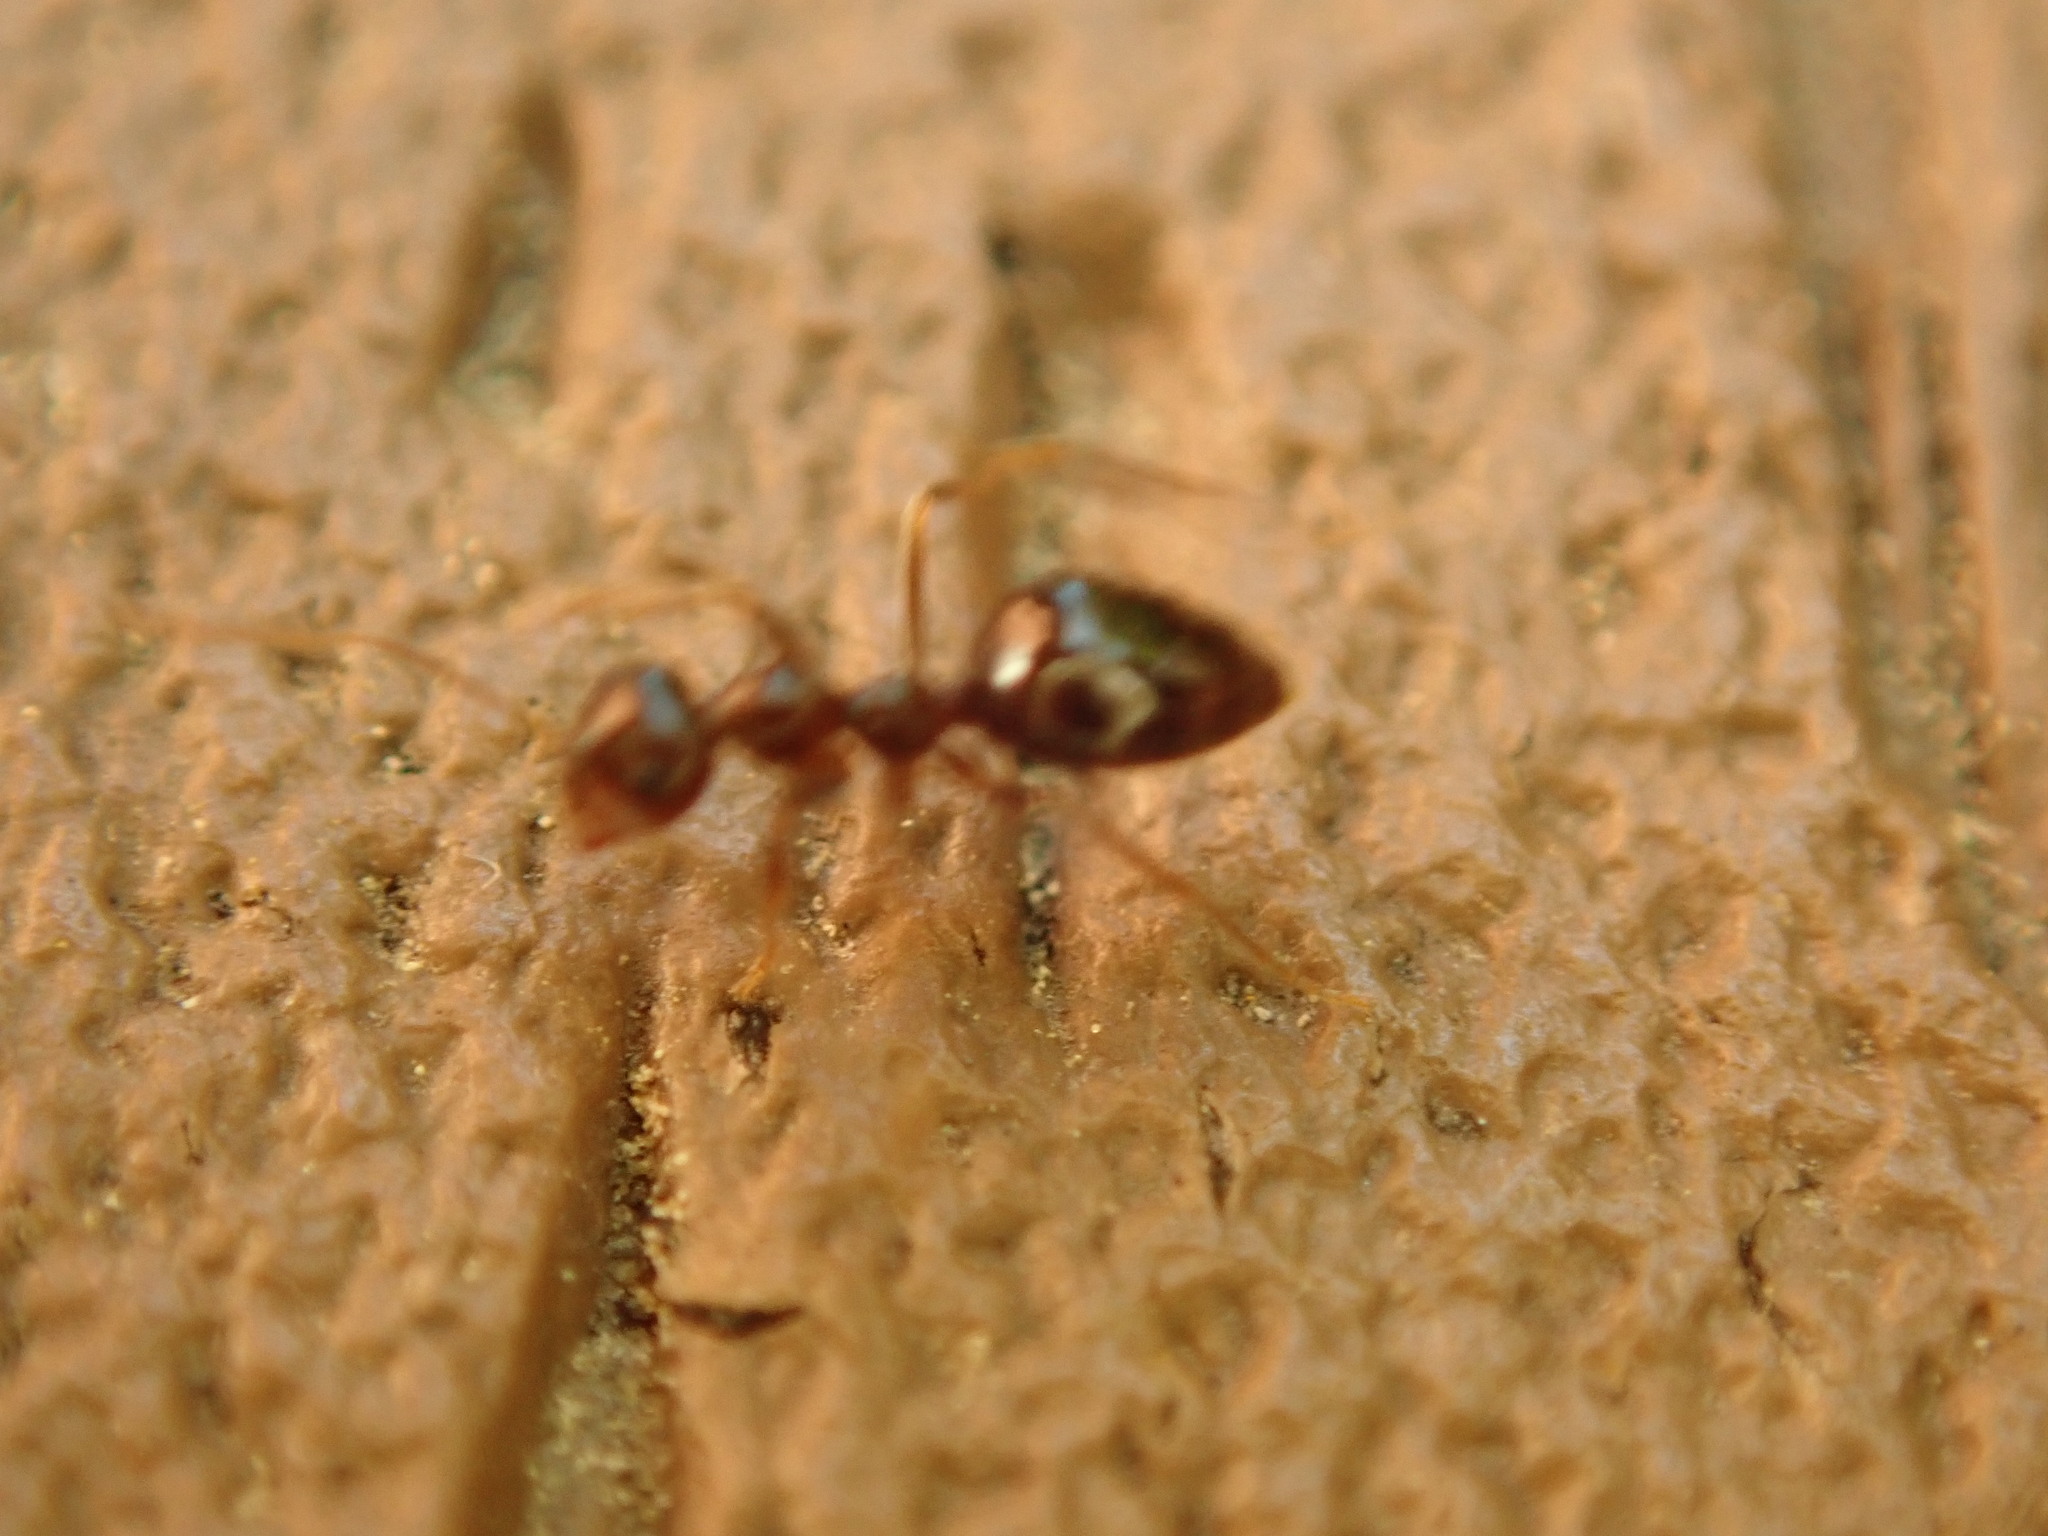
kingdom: Animalia
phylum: Arthropoda
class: Insecta
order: Hymenoptera
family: Formicidae
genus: Prenolepis
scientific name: Prenolepis imparis
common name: Small honey ant
